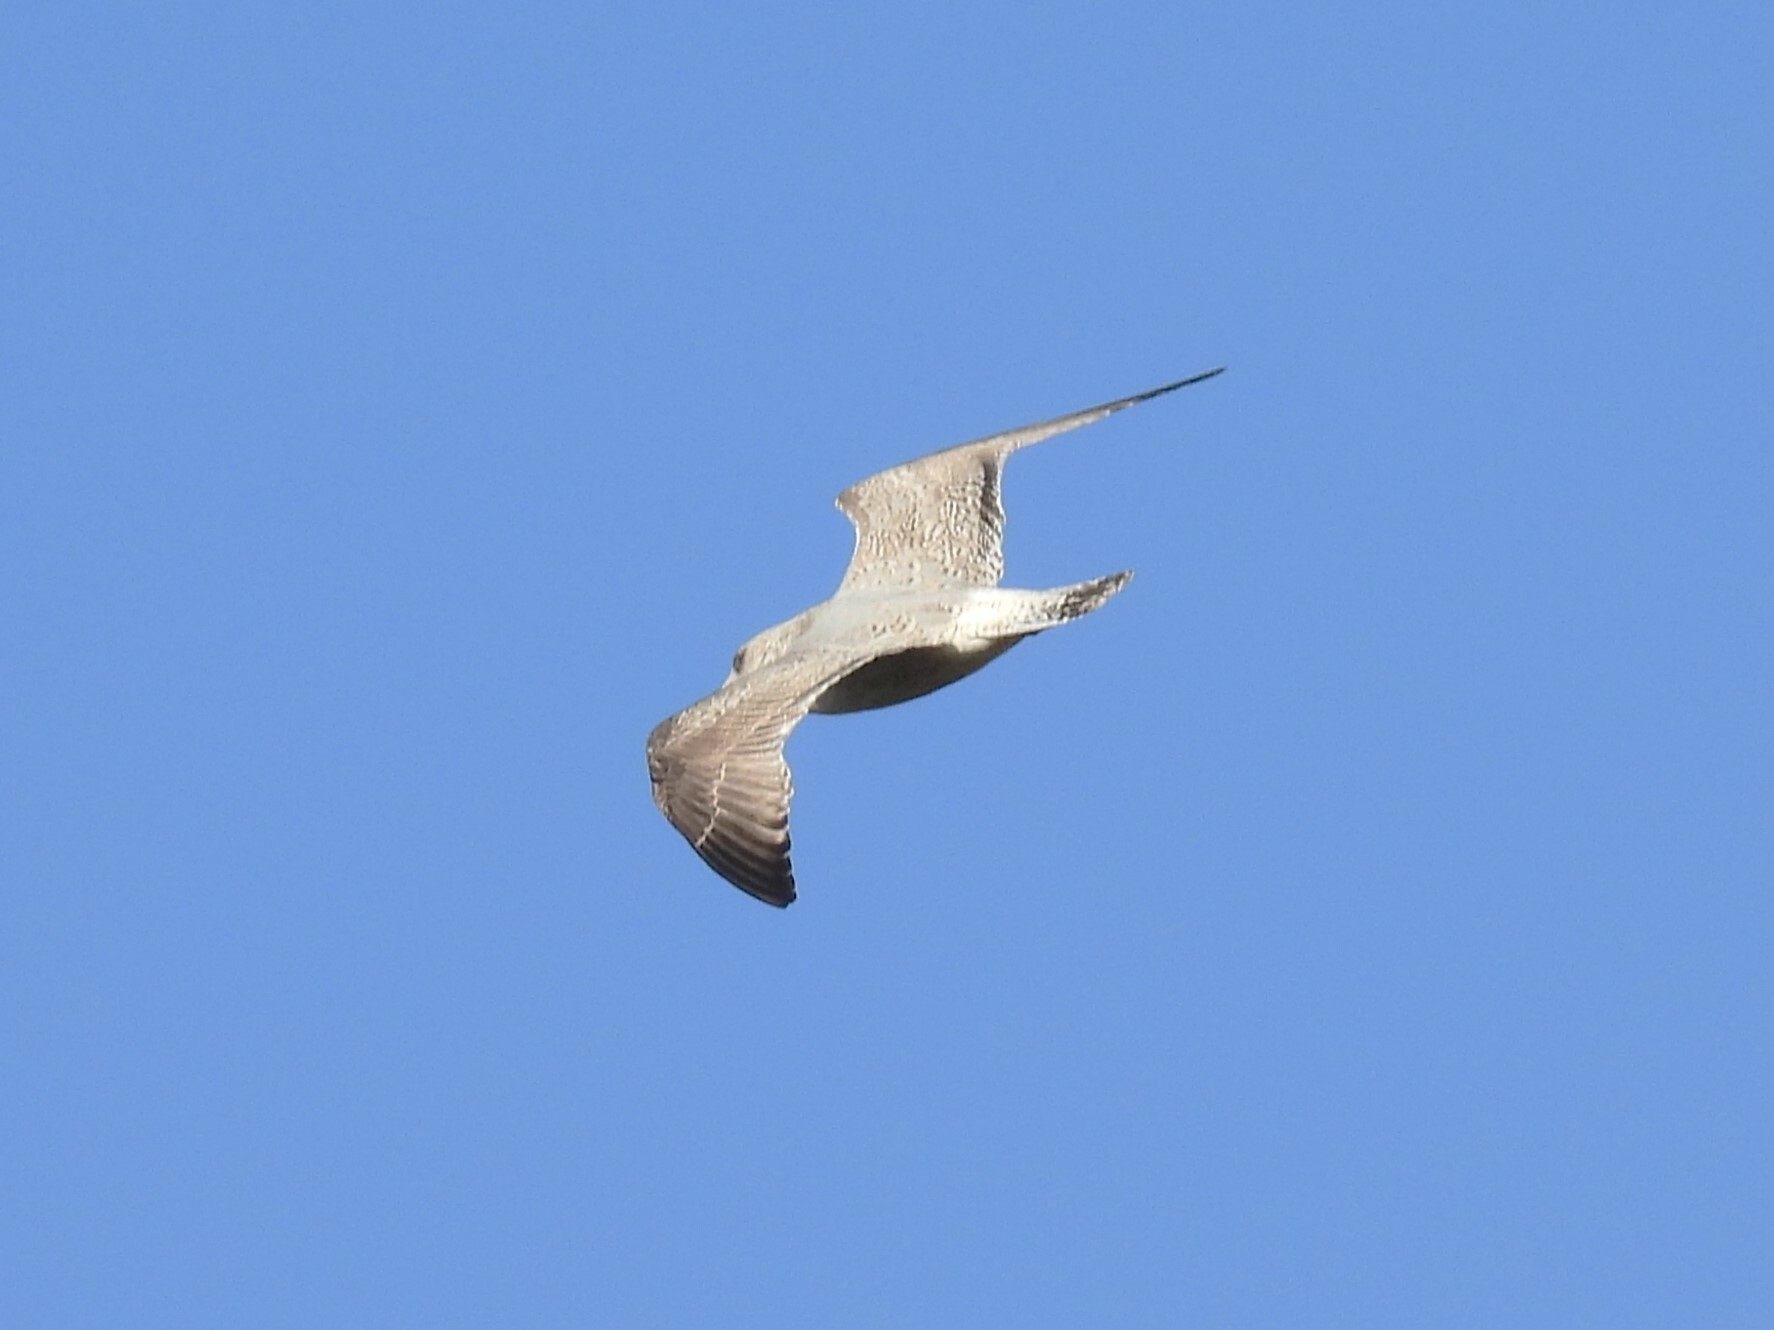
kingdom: Animalia
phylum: Chordata
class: Aves
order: Charadriiformes
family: Laridae
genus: Larus
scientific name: Larus argentatus
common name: Herring gull
